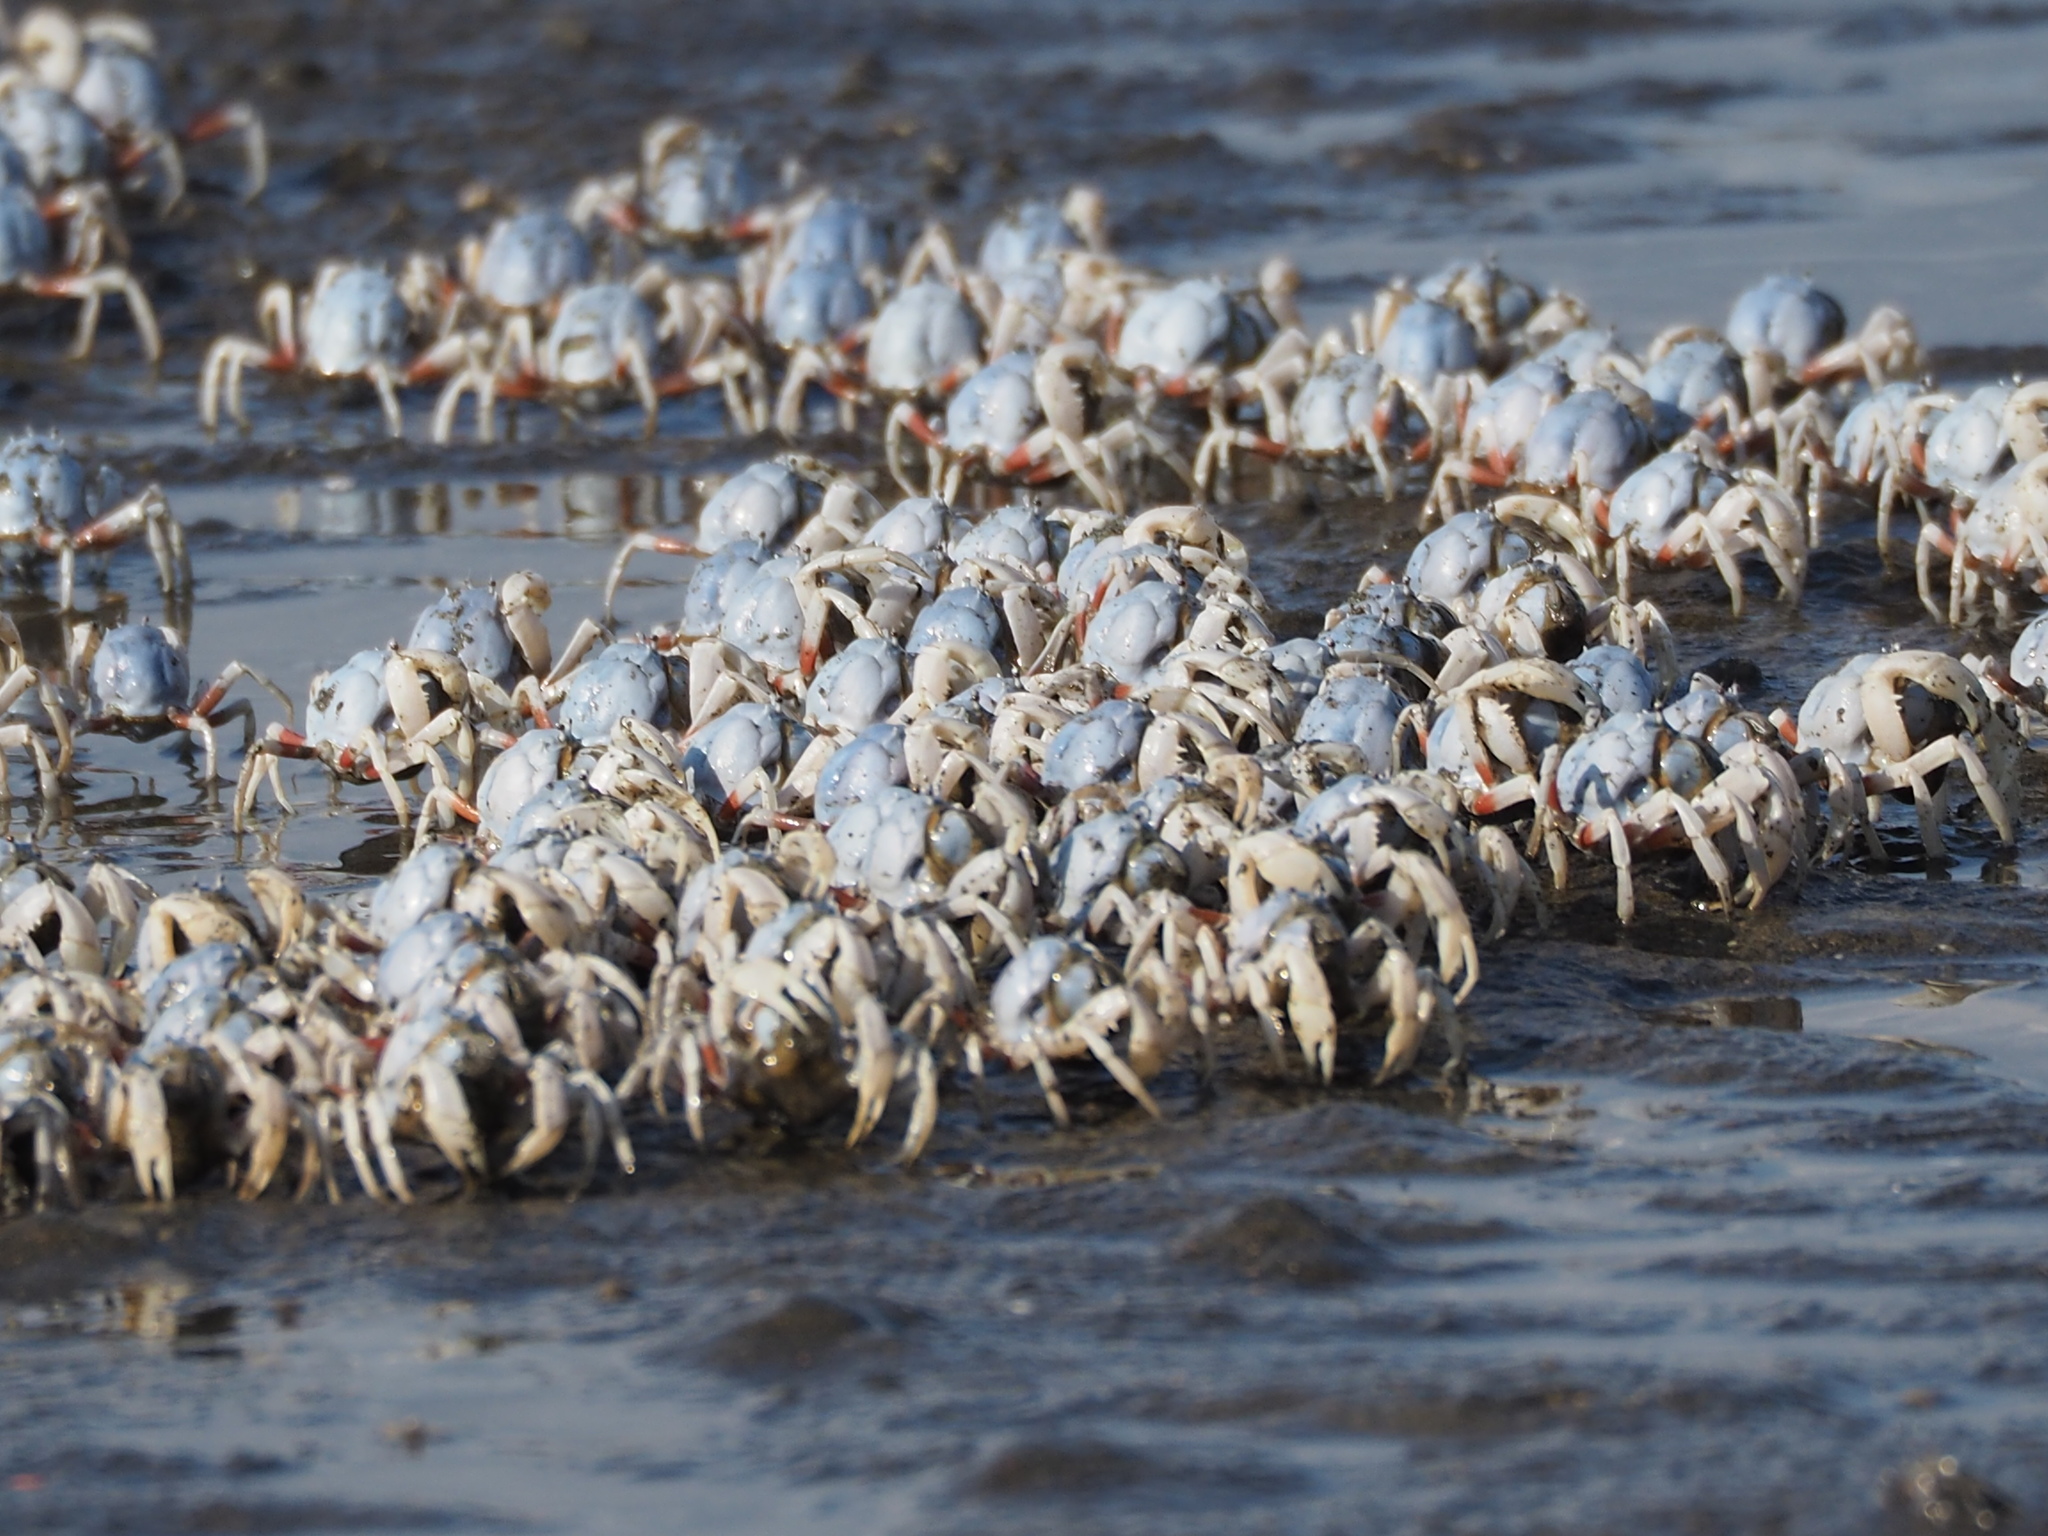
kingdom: Animalia
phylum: Arthropoda
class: Malacostraca
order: Decapoda
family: Mictyridae
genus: Mictyris
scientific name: Mictyris brevidactylus
